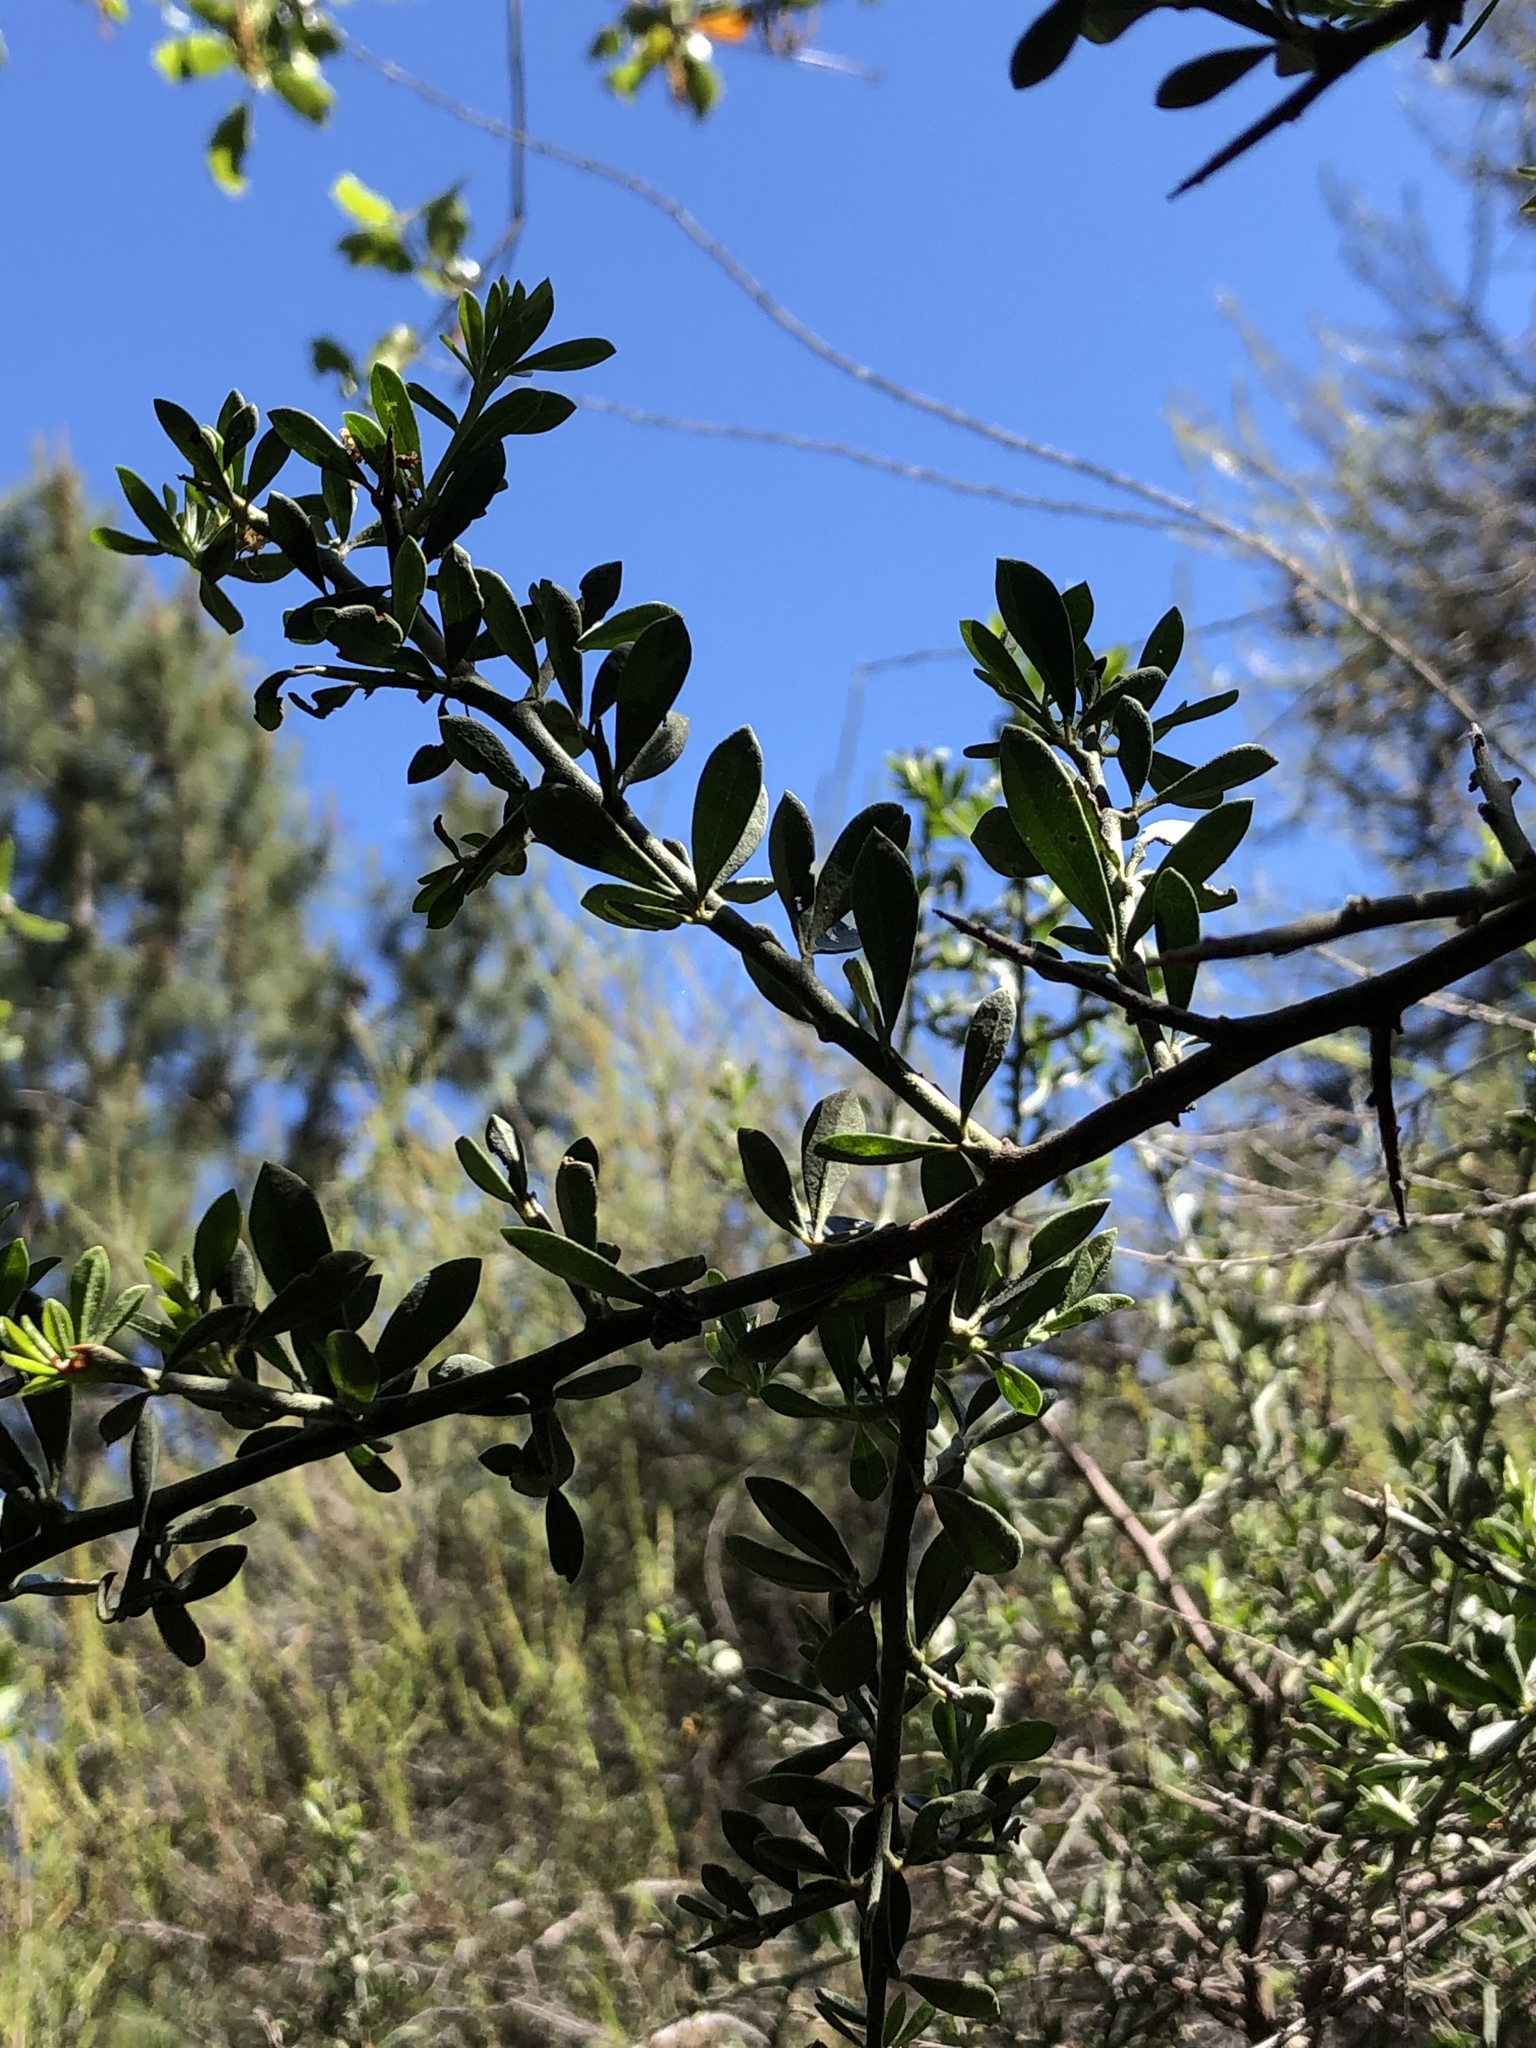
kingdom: Plantae
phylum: Tracheophyta
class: Magnoliopsida
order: Fabales
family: Fabaceae
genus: Pickeringia
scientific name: Pickeringia montana
